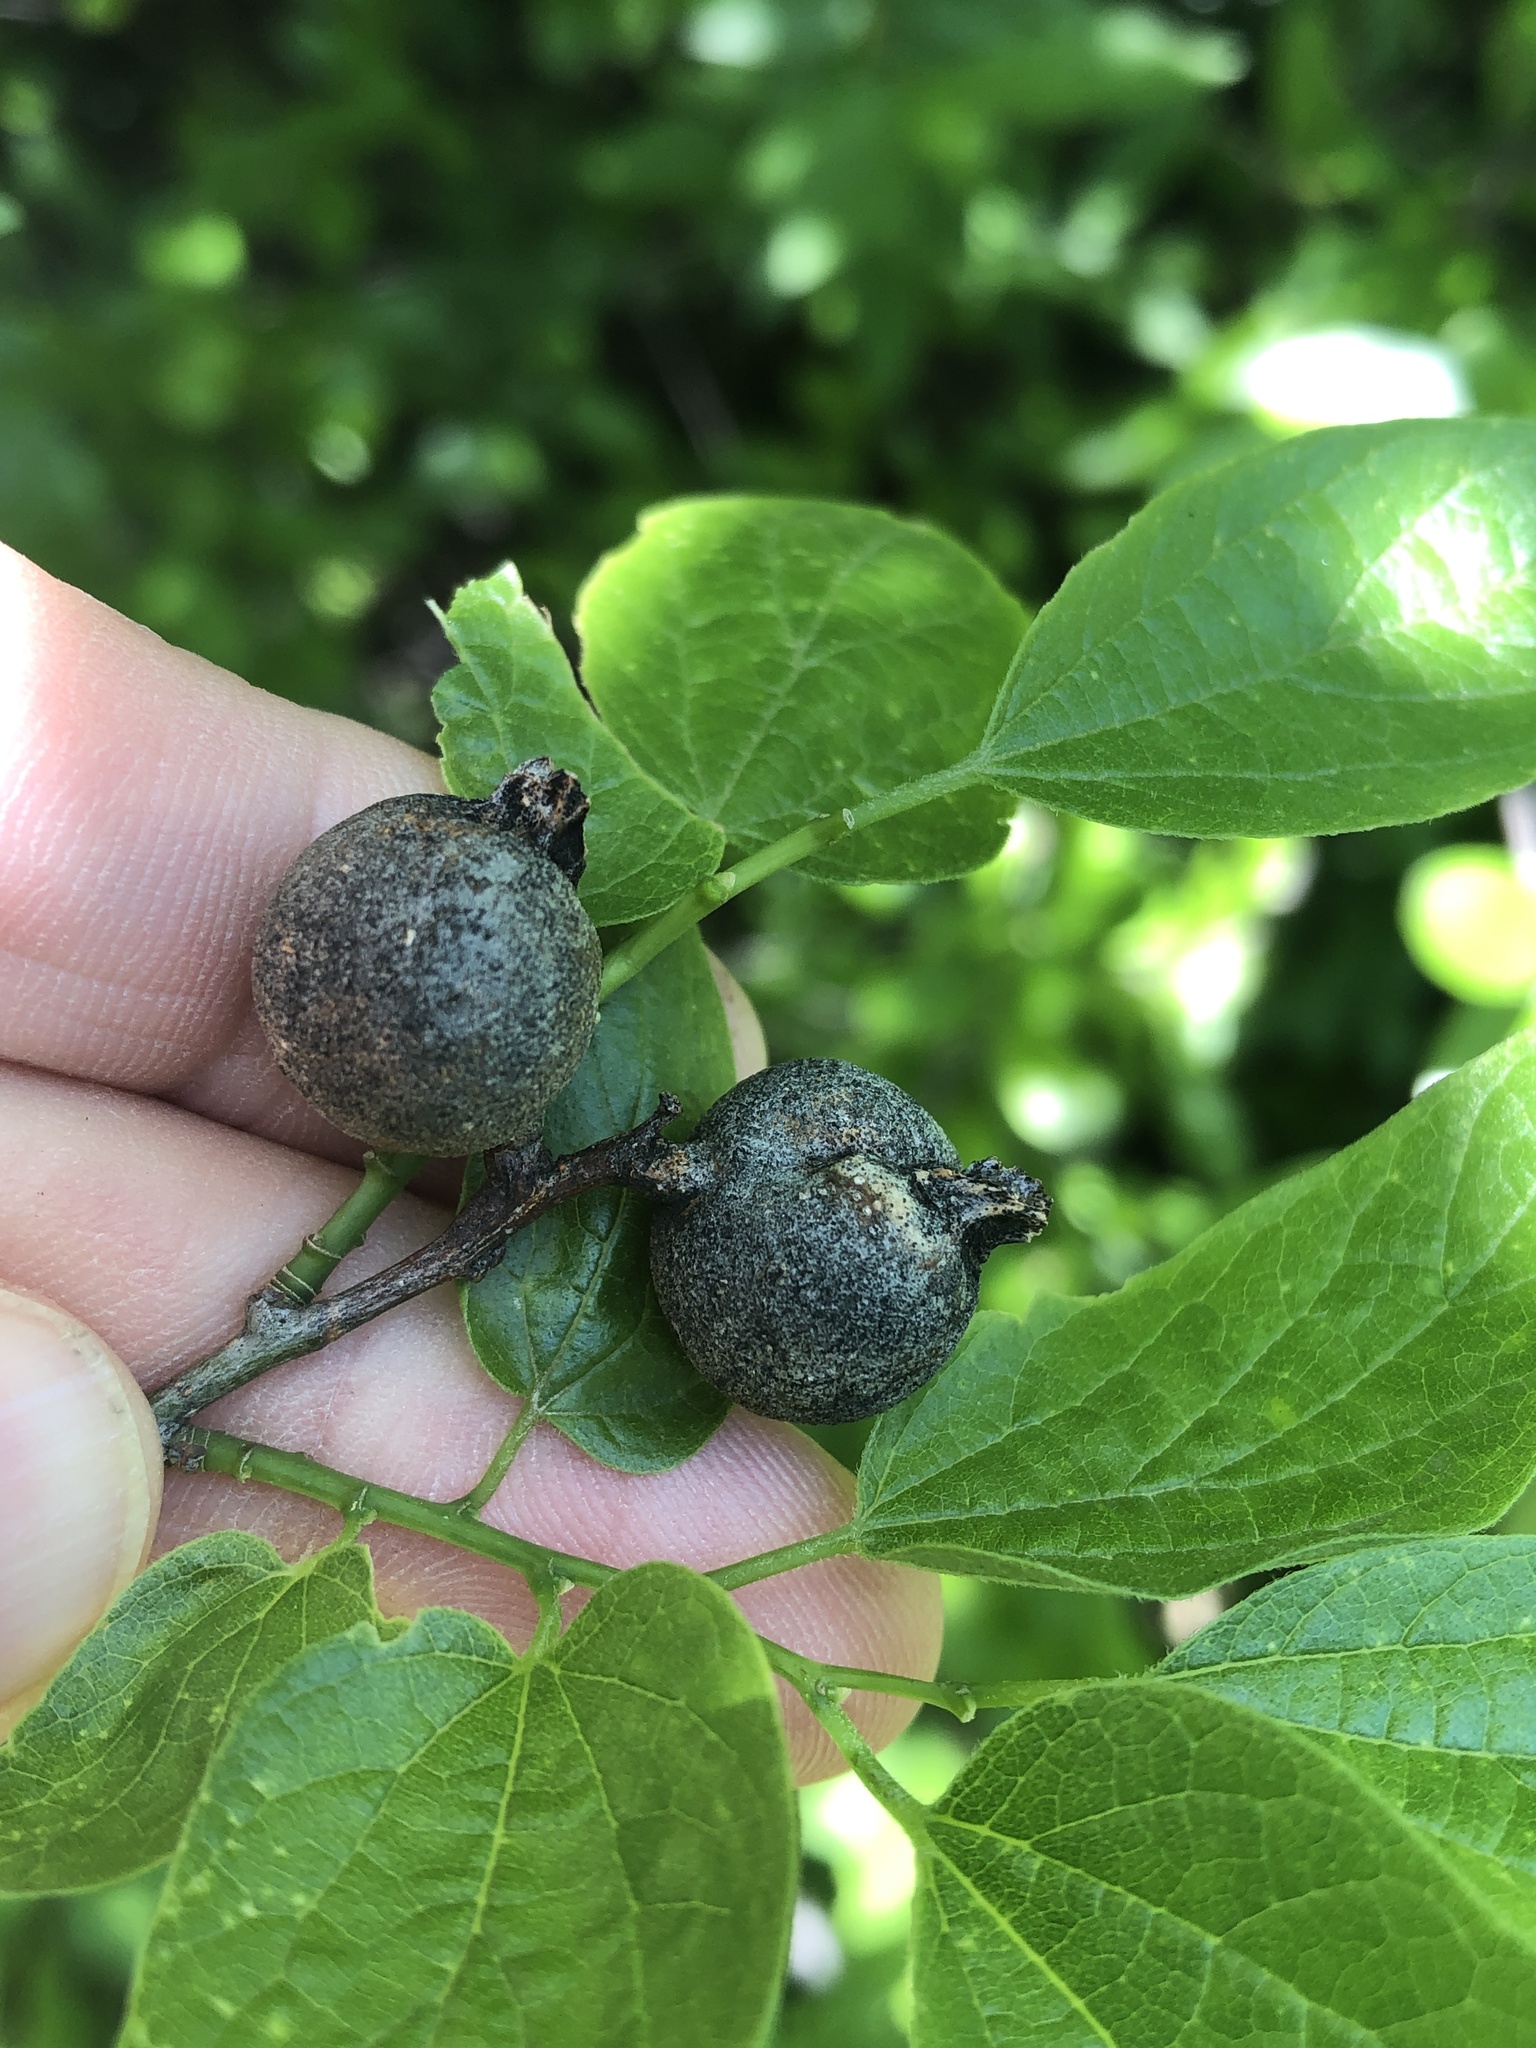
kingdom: Animalia
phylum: Arthropoda
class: Insecta
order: Hemiptera
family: Aphalaridae
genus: Pachypsylla
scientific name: Pachypsylla venusta
